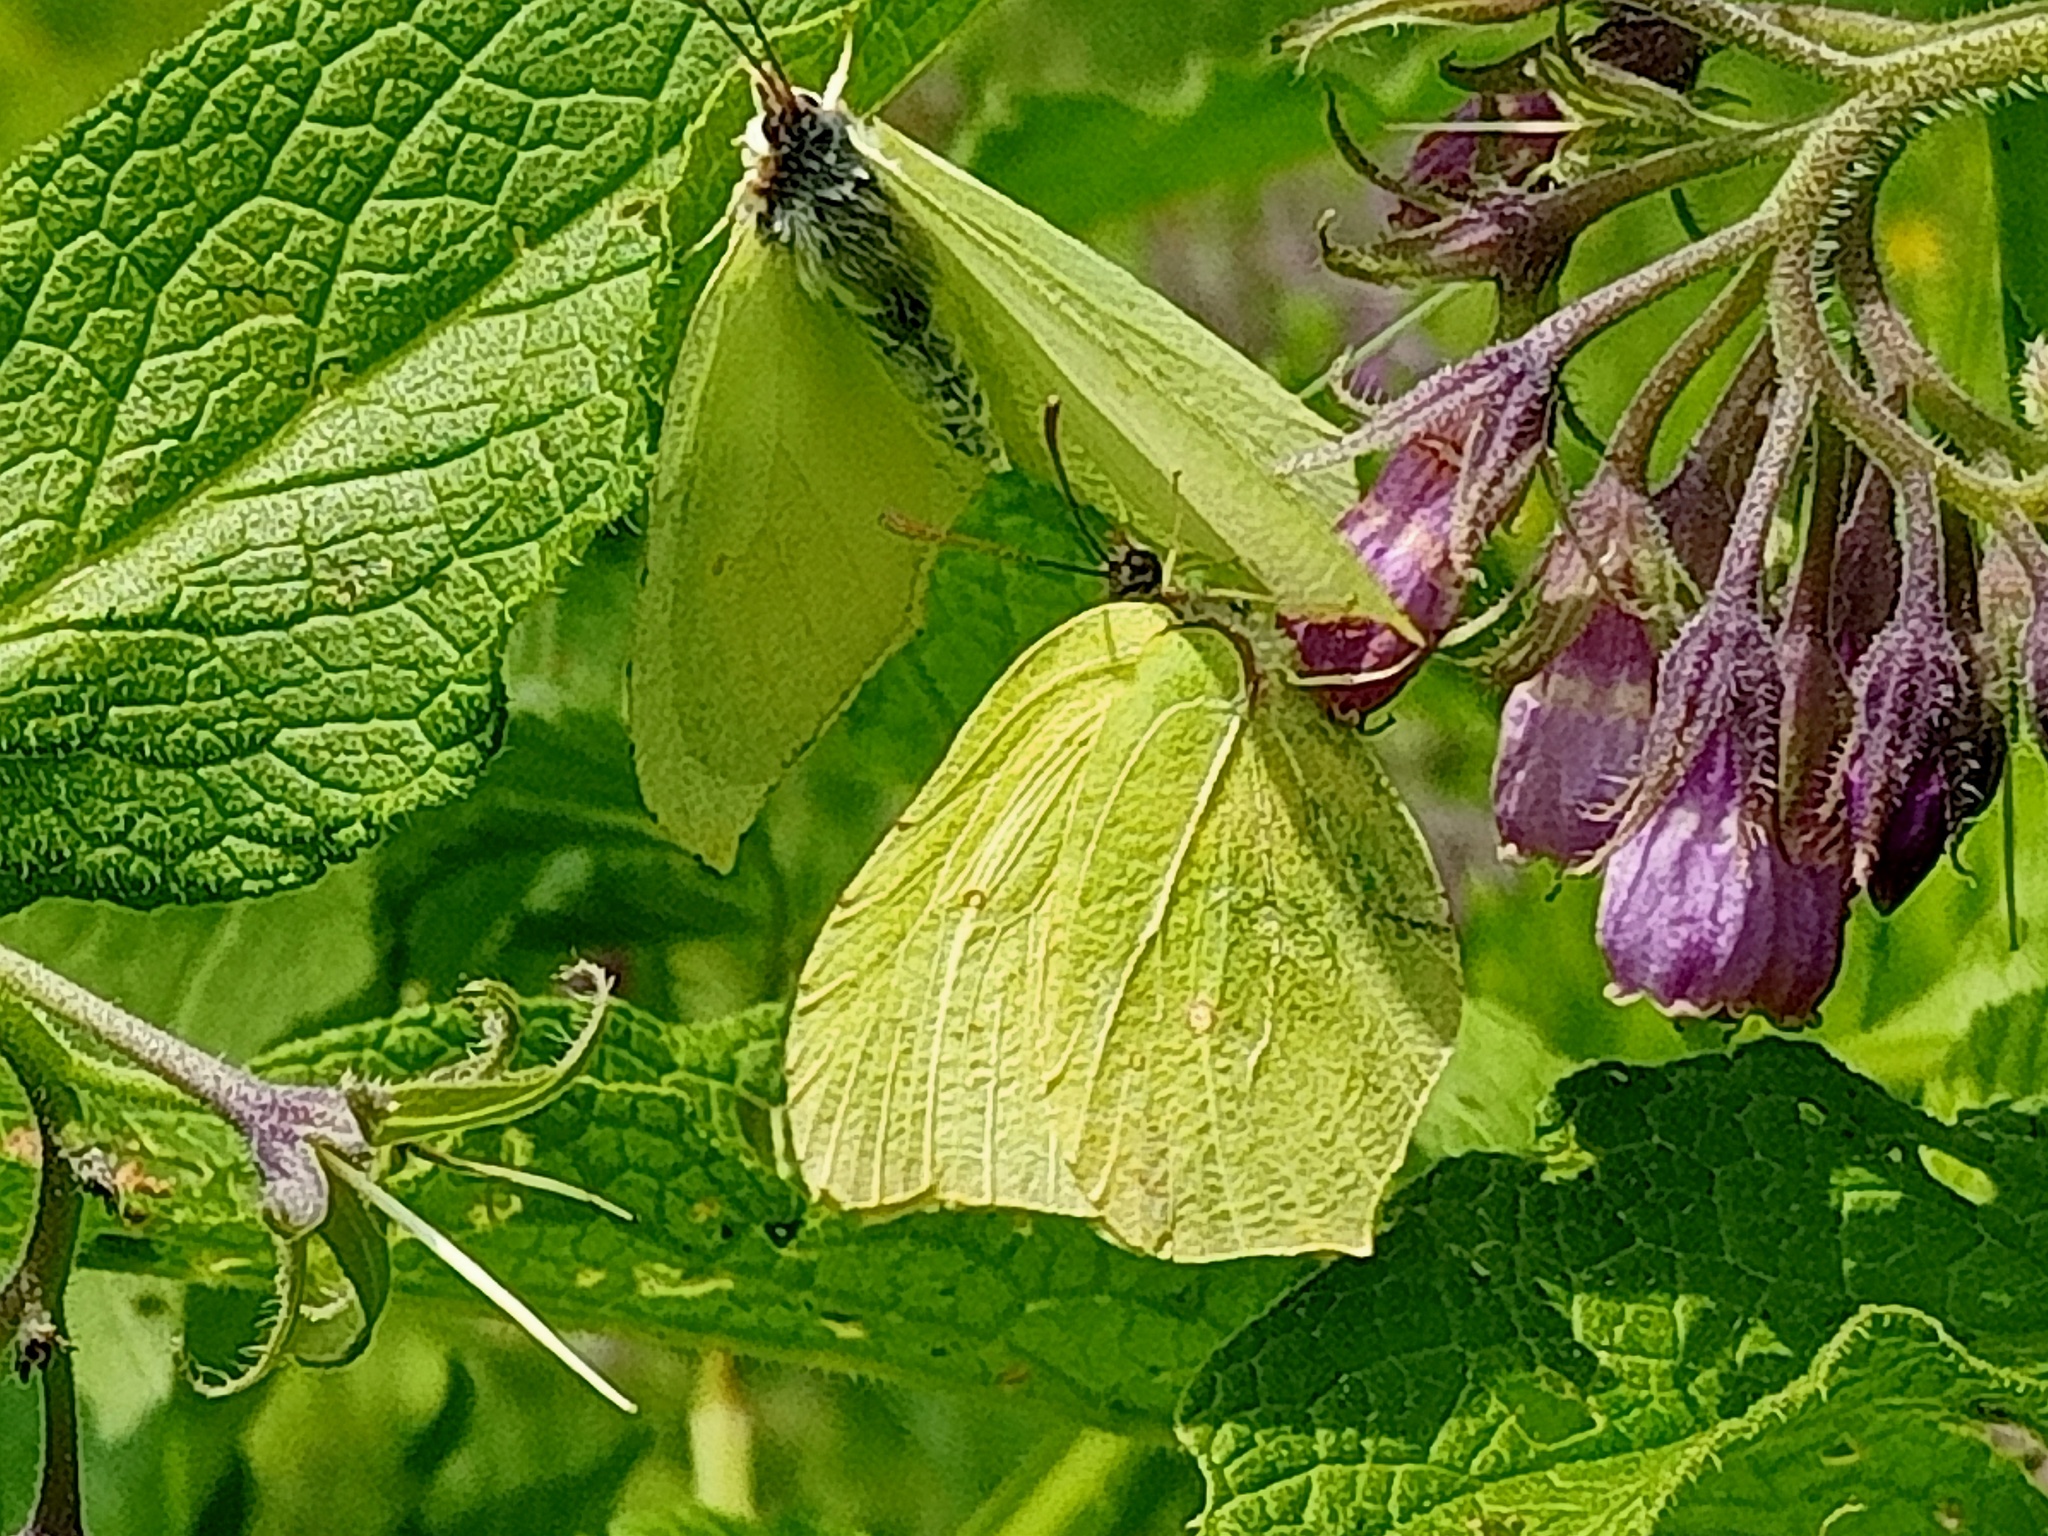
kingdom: Animalia
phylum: Arthropoda
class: Insecta
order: Lepidoptera
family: Pieridae
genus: Gonepteryx
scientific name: Gonepteryx rhamni
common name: Brimstone
